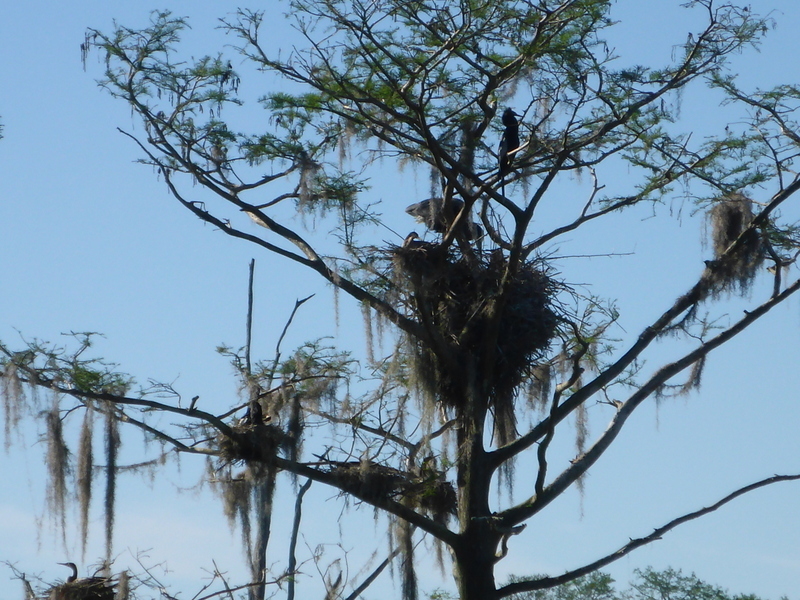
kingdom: Animalia
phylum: Chordata
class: Aves
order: Suliformes
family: Anhingidae
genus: Anhinga
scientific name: Anhinga anhinga
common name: Anhinga
